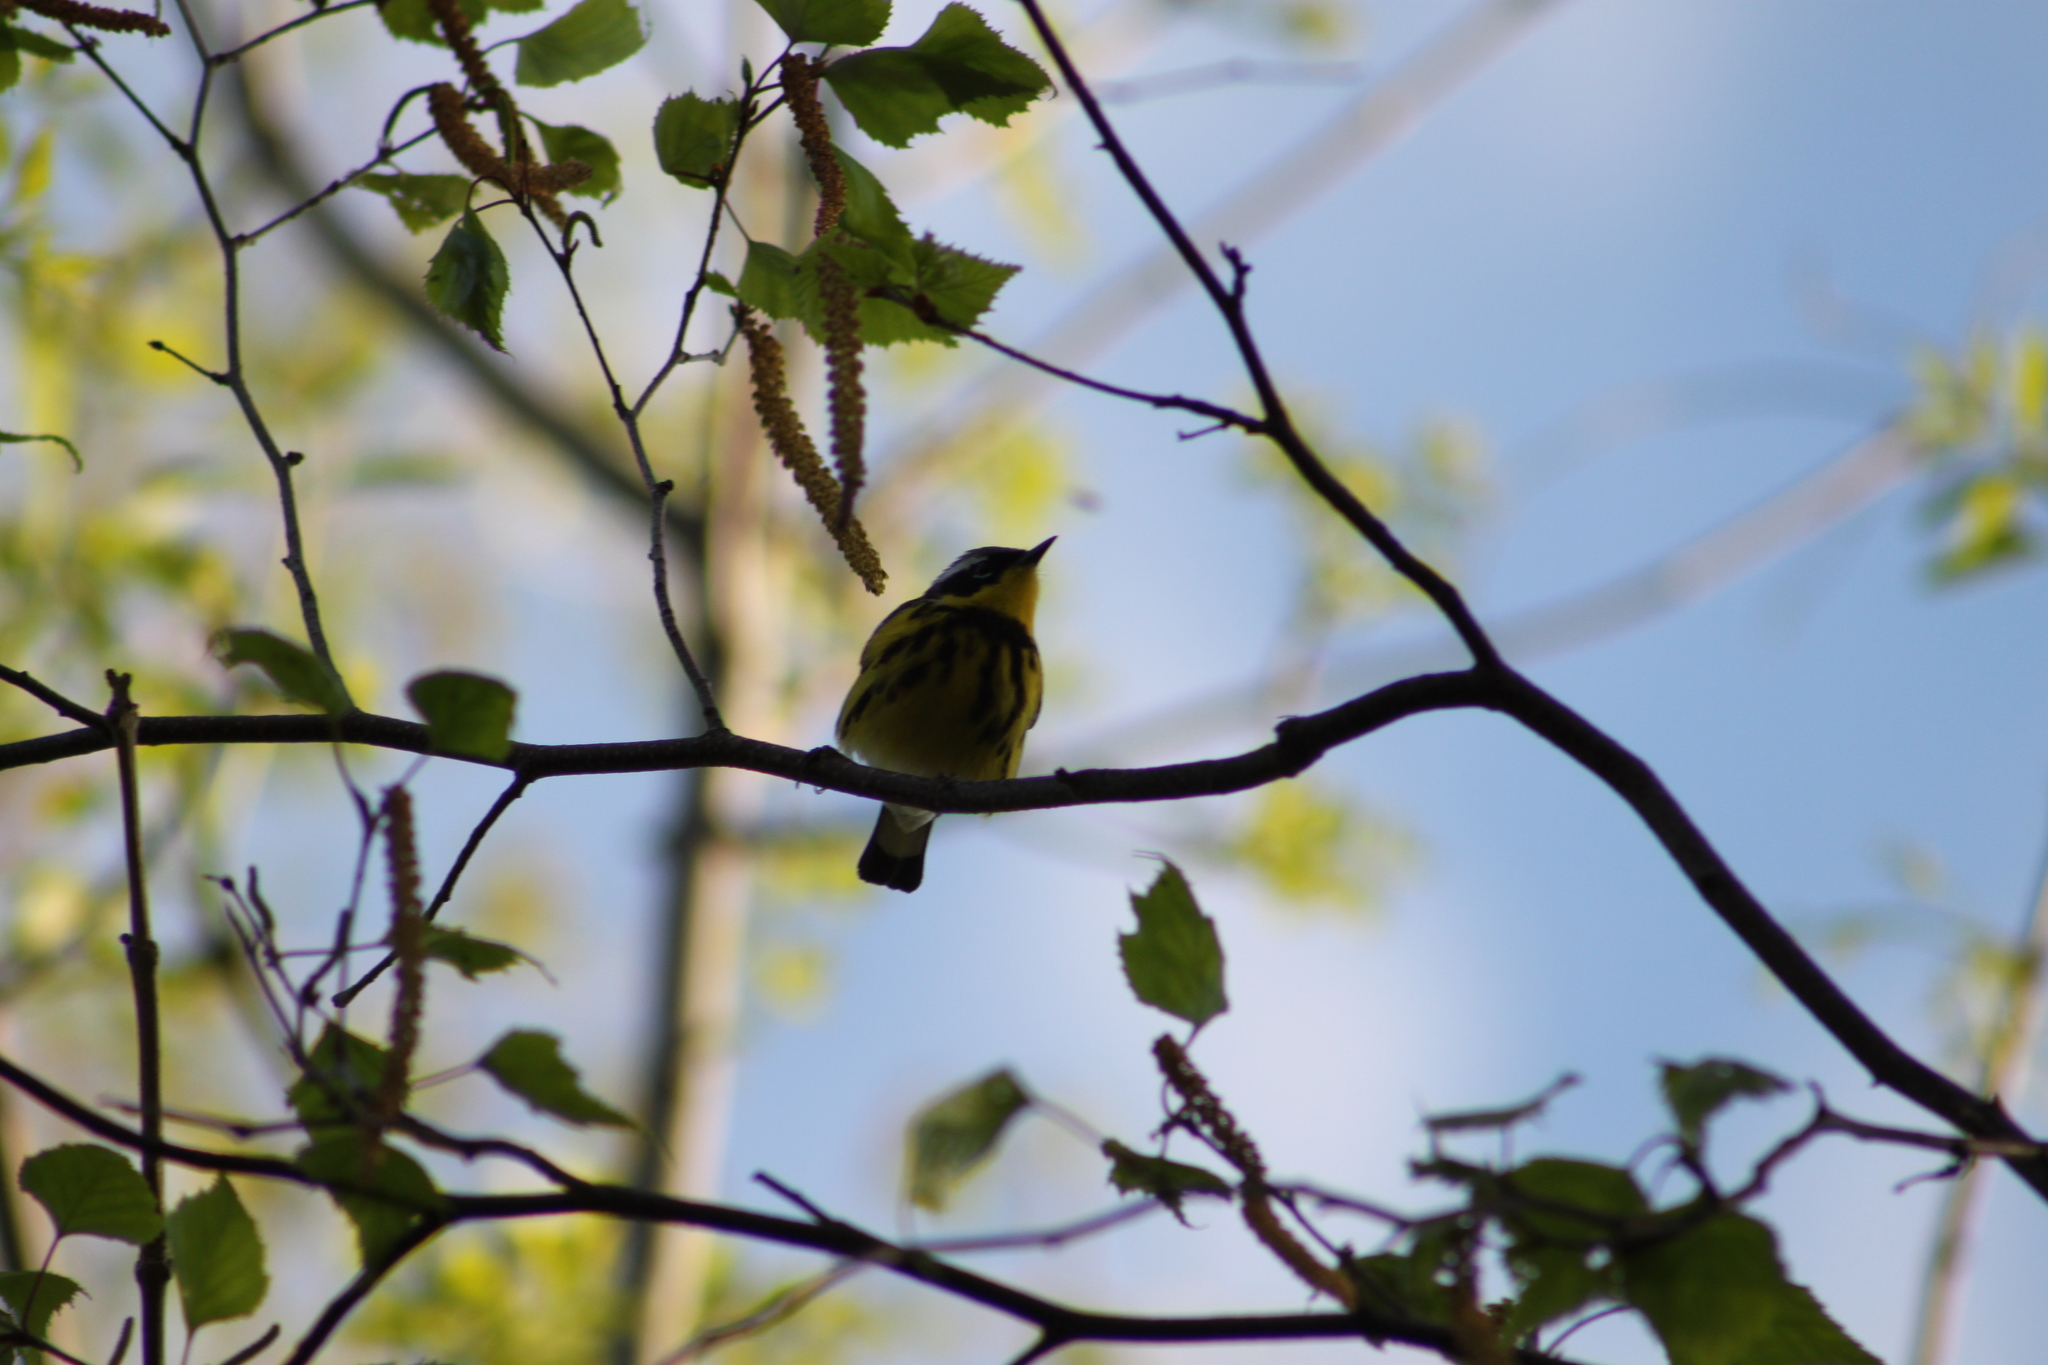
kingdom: Animalia
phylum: Chordata
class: Aves
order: Passeriformes
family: Parulidae
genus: Setophaga
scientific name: Setophaga magnolia
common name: Magnolia warbler
